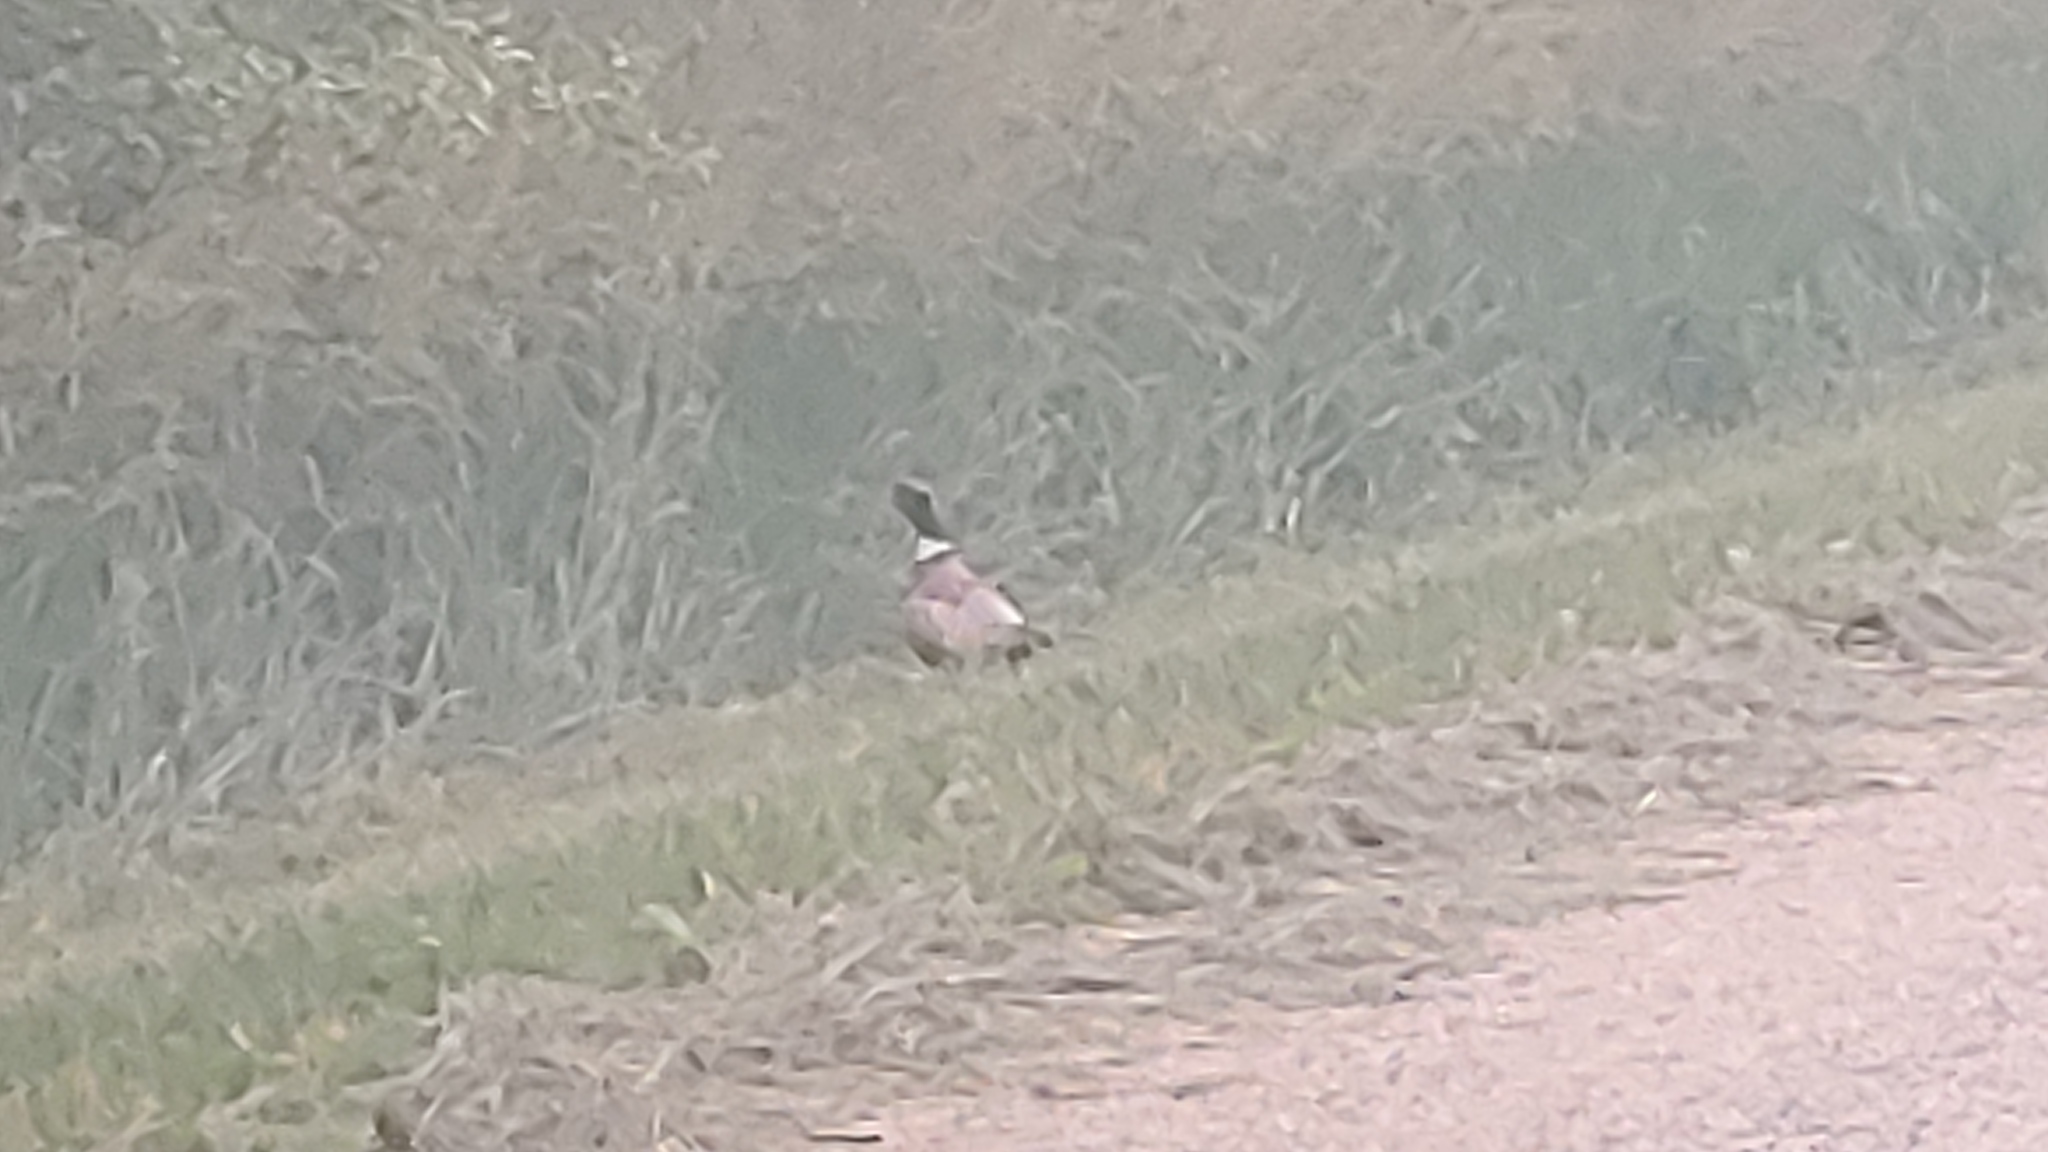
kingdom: Animalia
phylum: Chordata
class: Aves
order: Galliformes
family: Phasianidae
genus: Phasianus
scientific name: Phasianus colchicus
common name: Common pheasant
